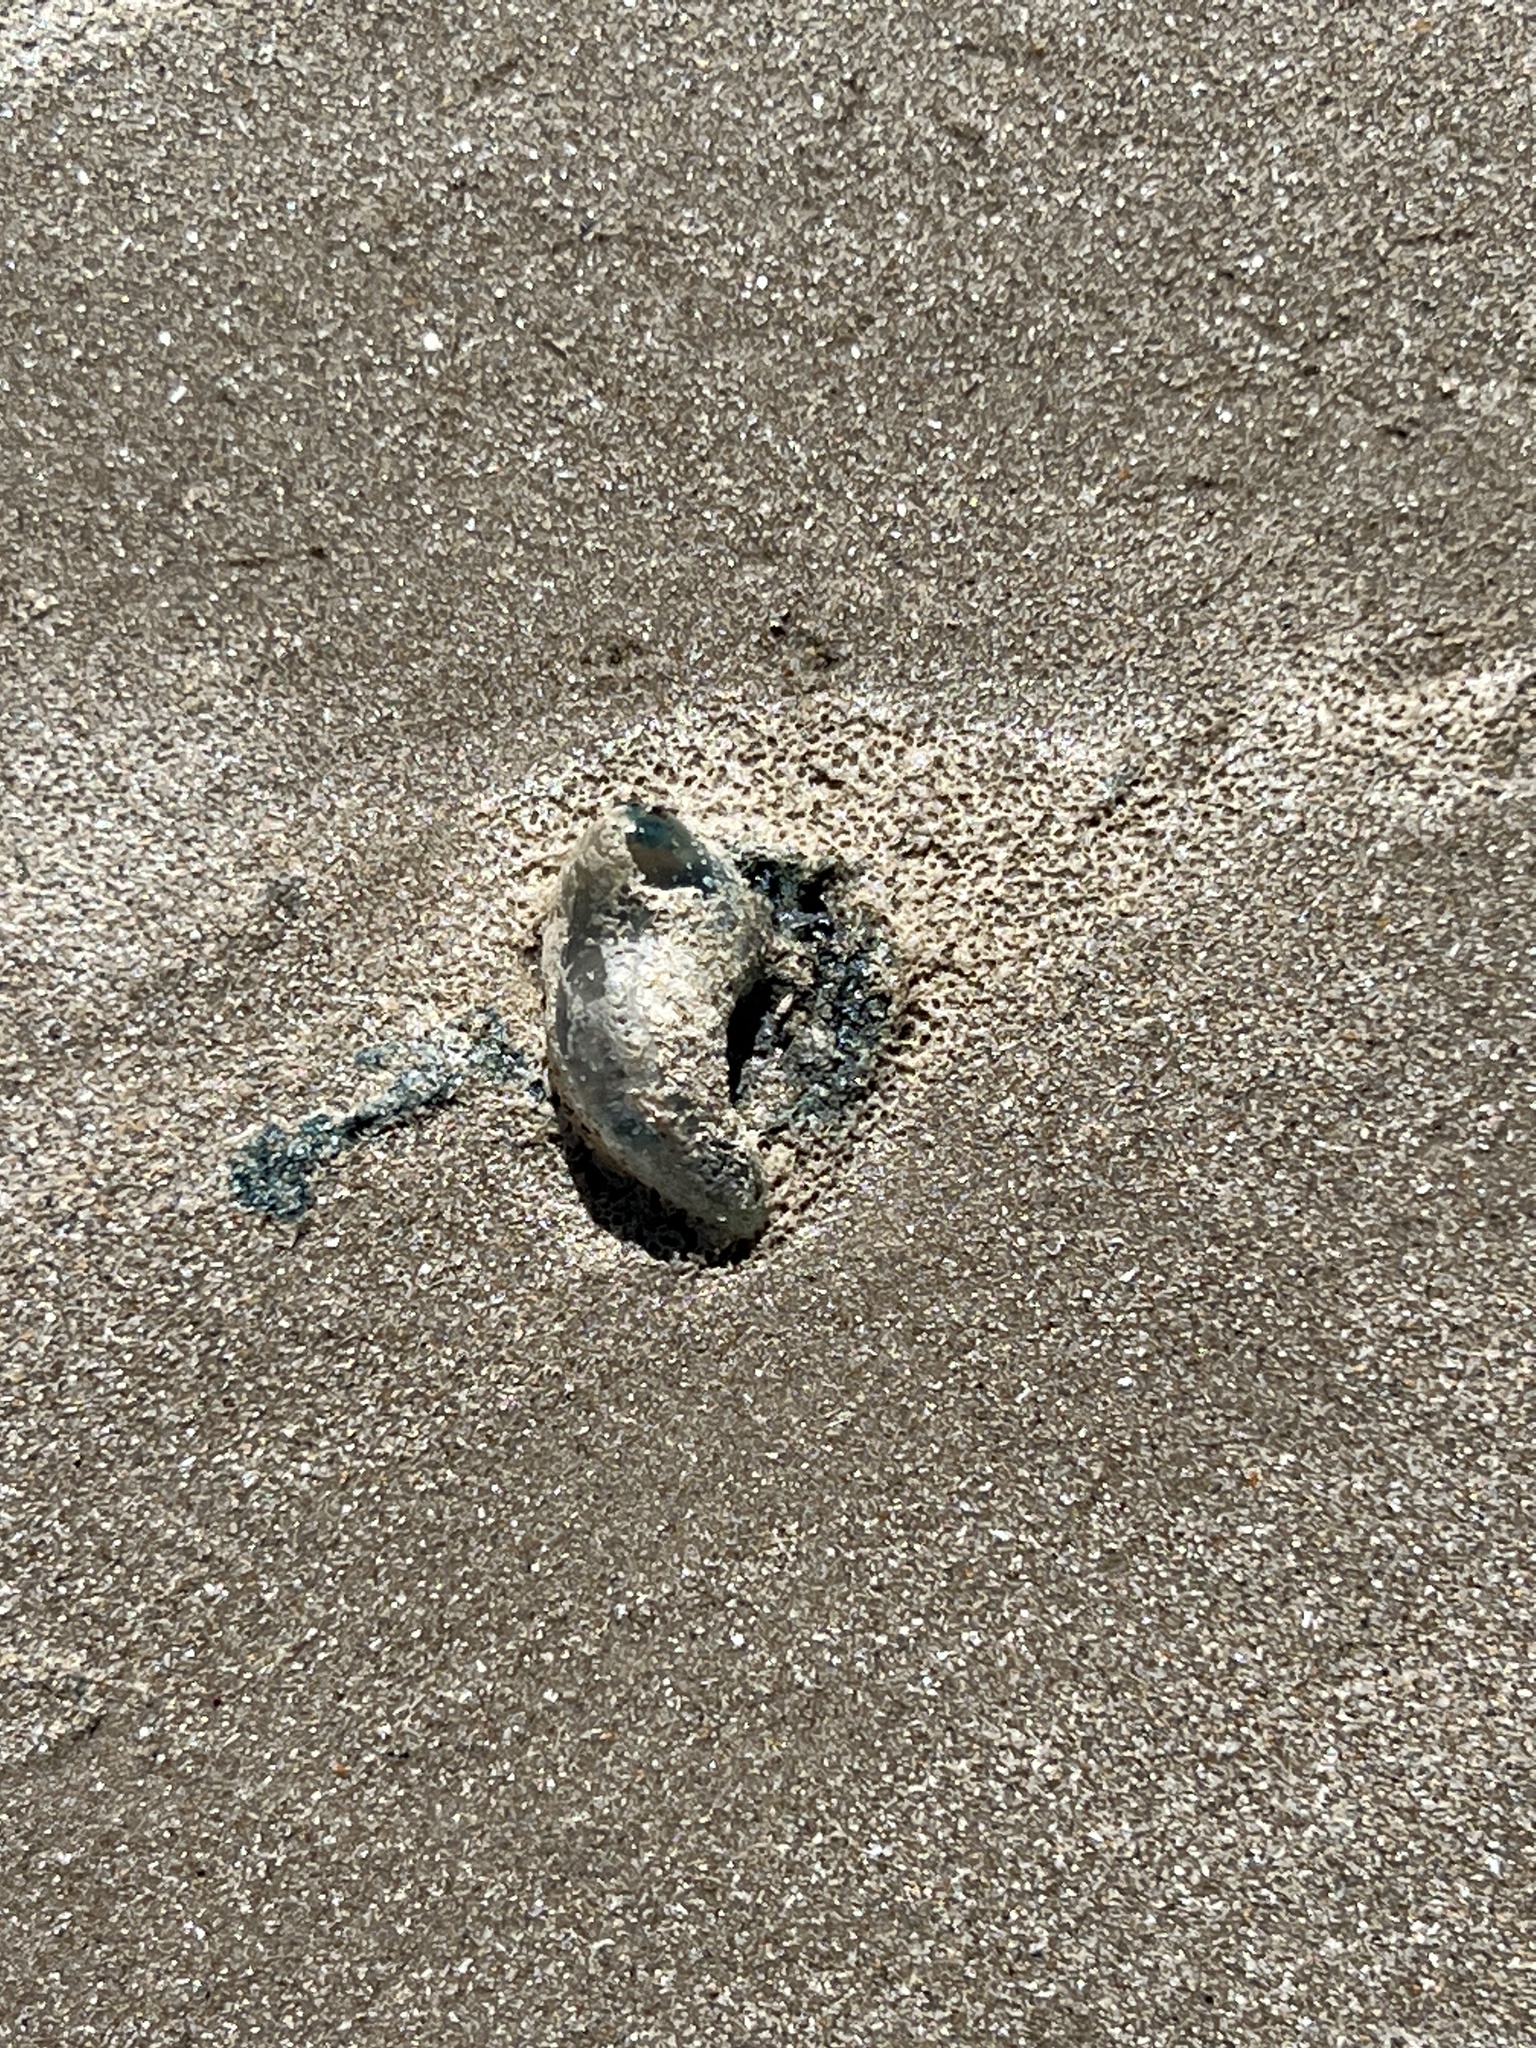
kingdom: Animalia
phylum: Cnidaria
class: Hydrozoa
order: Siphonophorae
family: Physaliidae
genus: Physalia
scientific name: Physalia physalis
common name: Portuguese man-of-war
